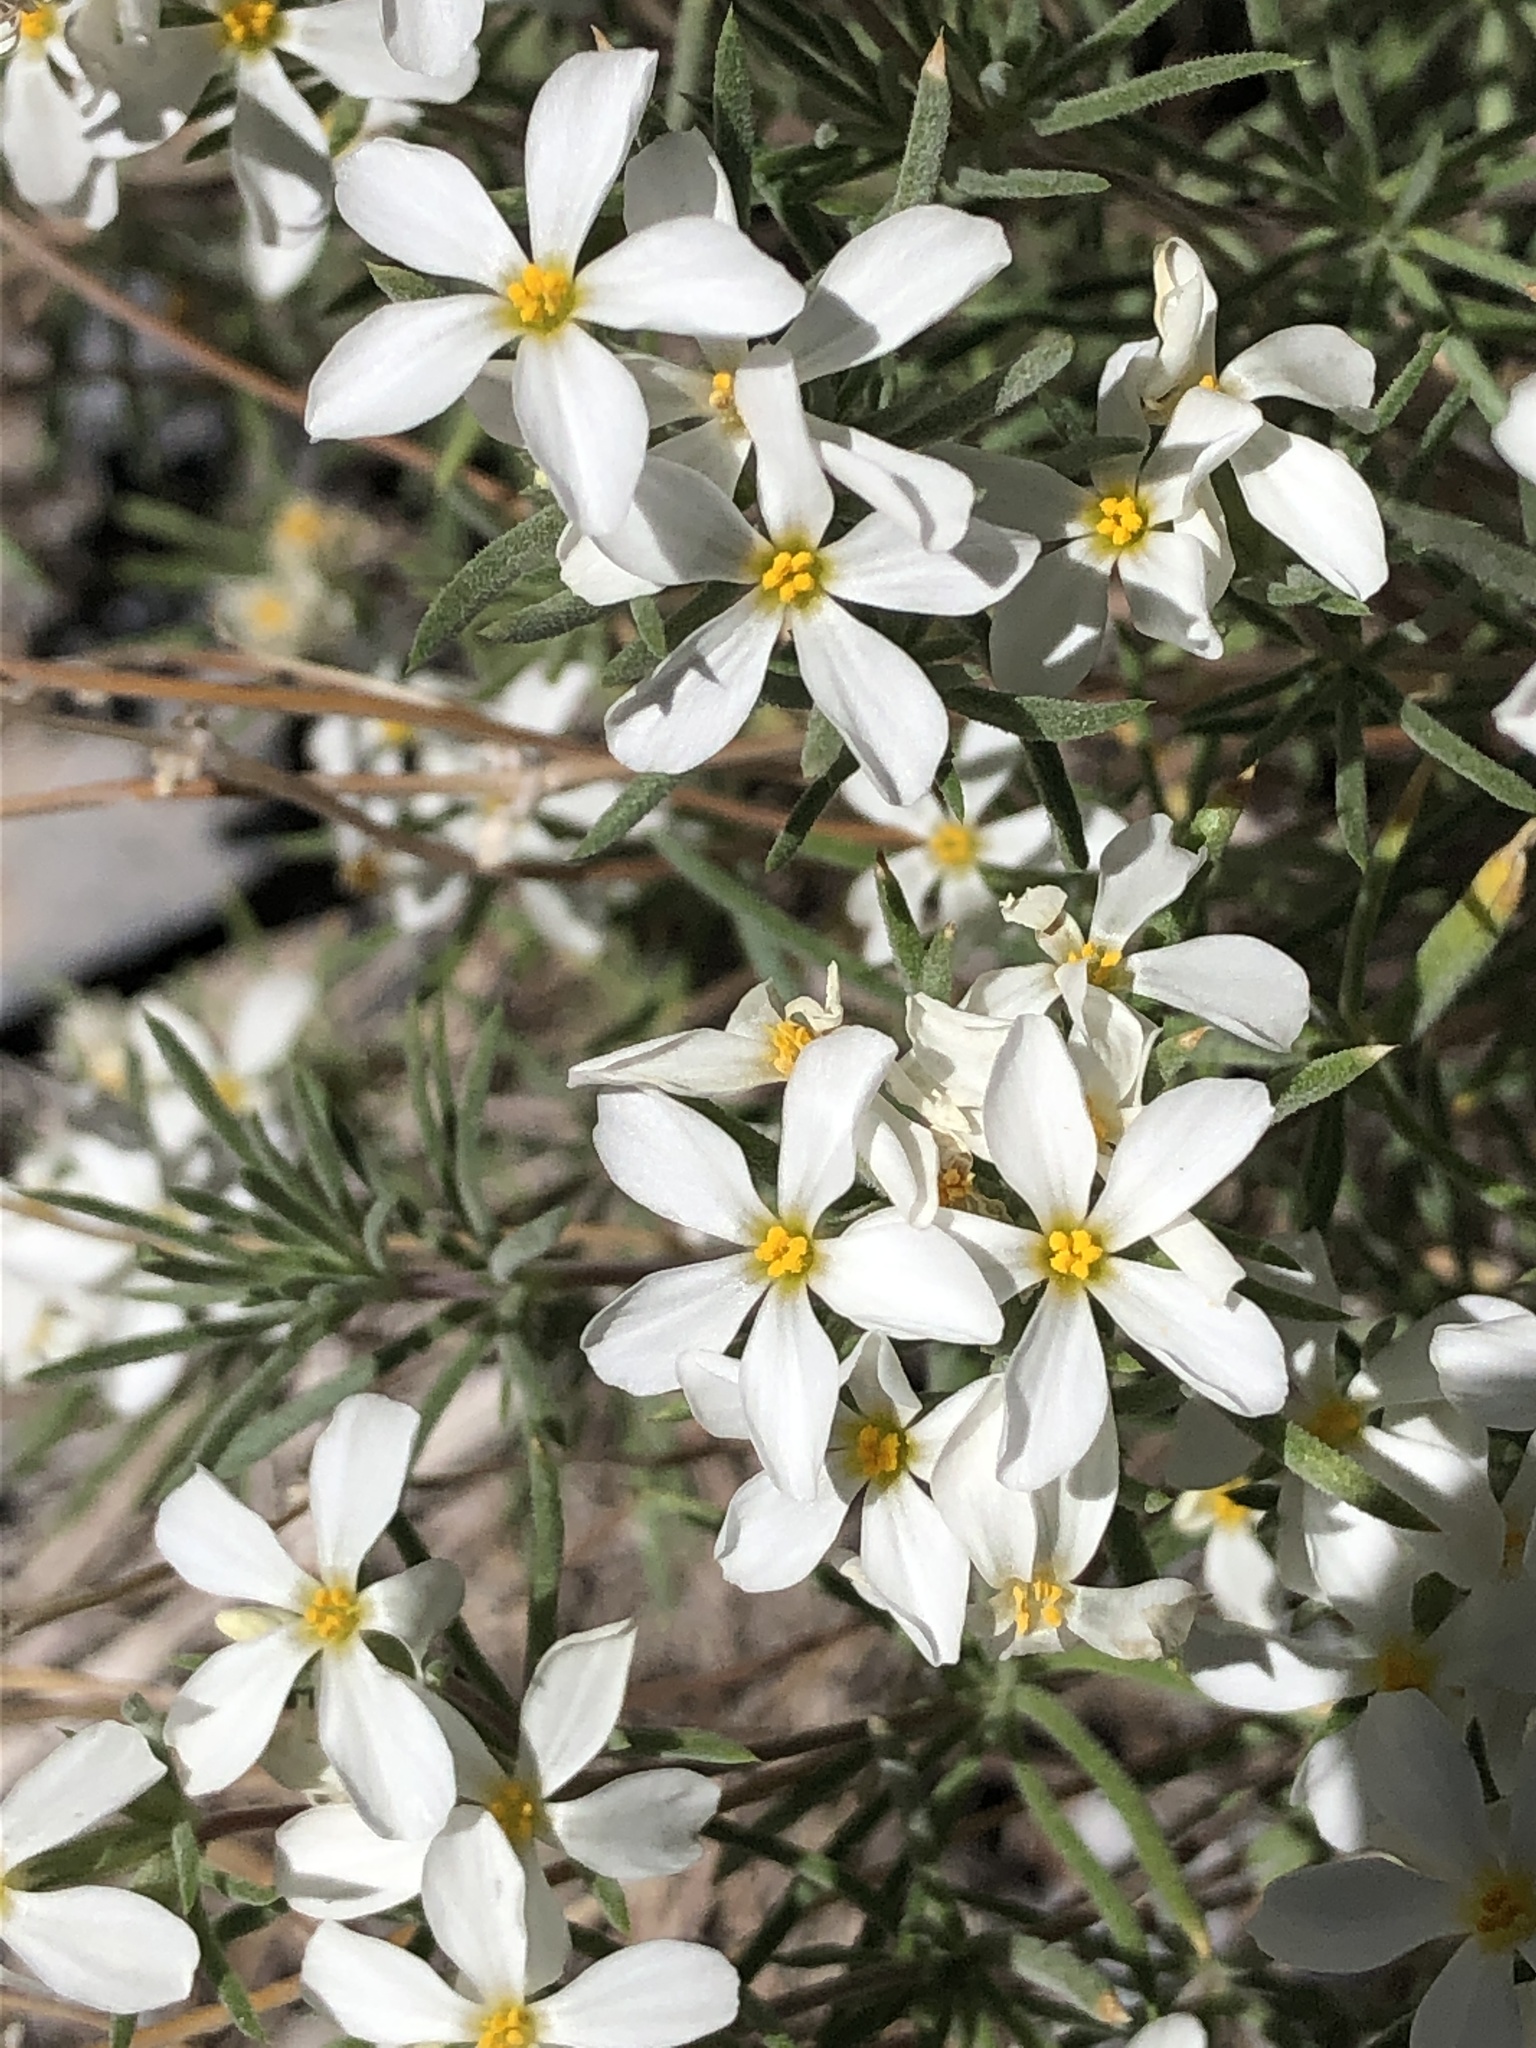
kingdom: Plantae
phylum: Tracheophyta
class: Magnoliopsida
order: Ericales
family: Polemoniaceae
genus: Leptosiphon
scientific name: Leptosiphon nuttallii
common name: Nuttall's linanthus
